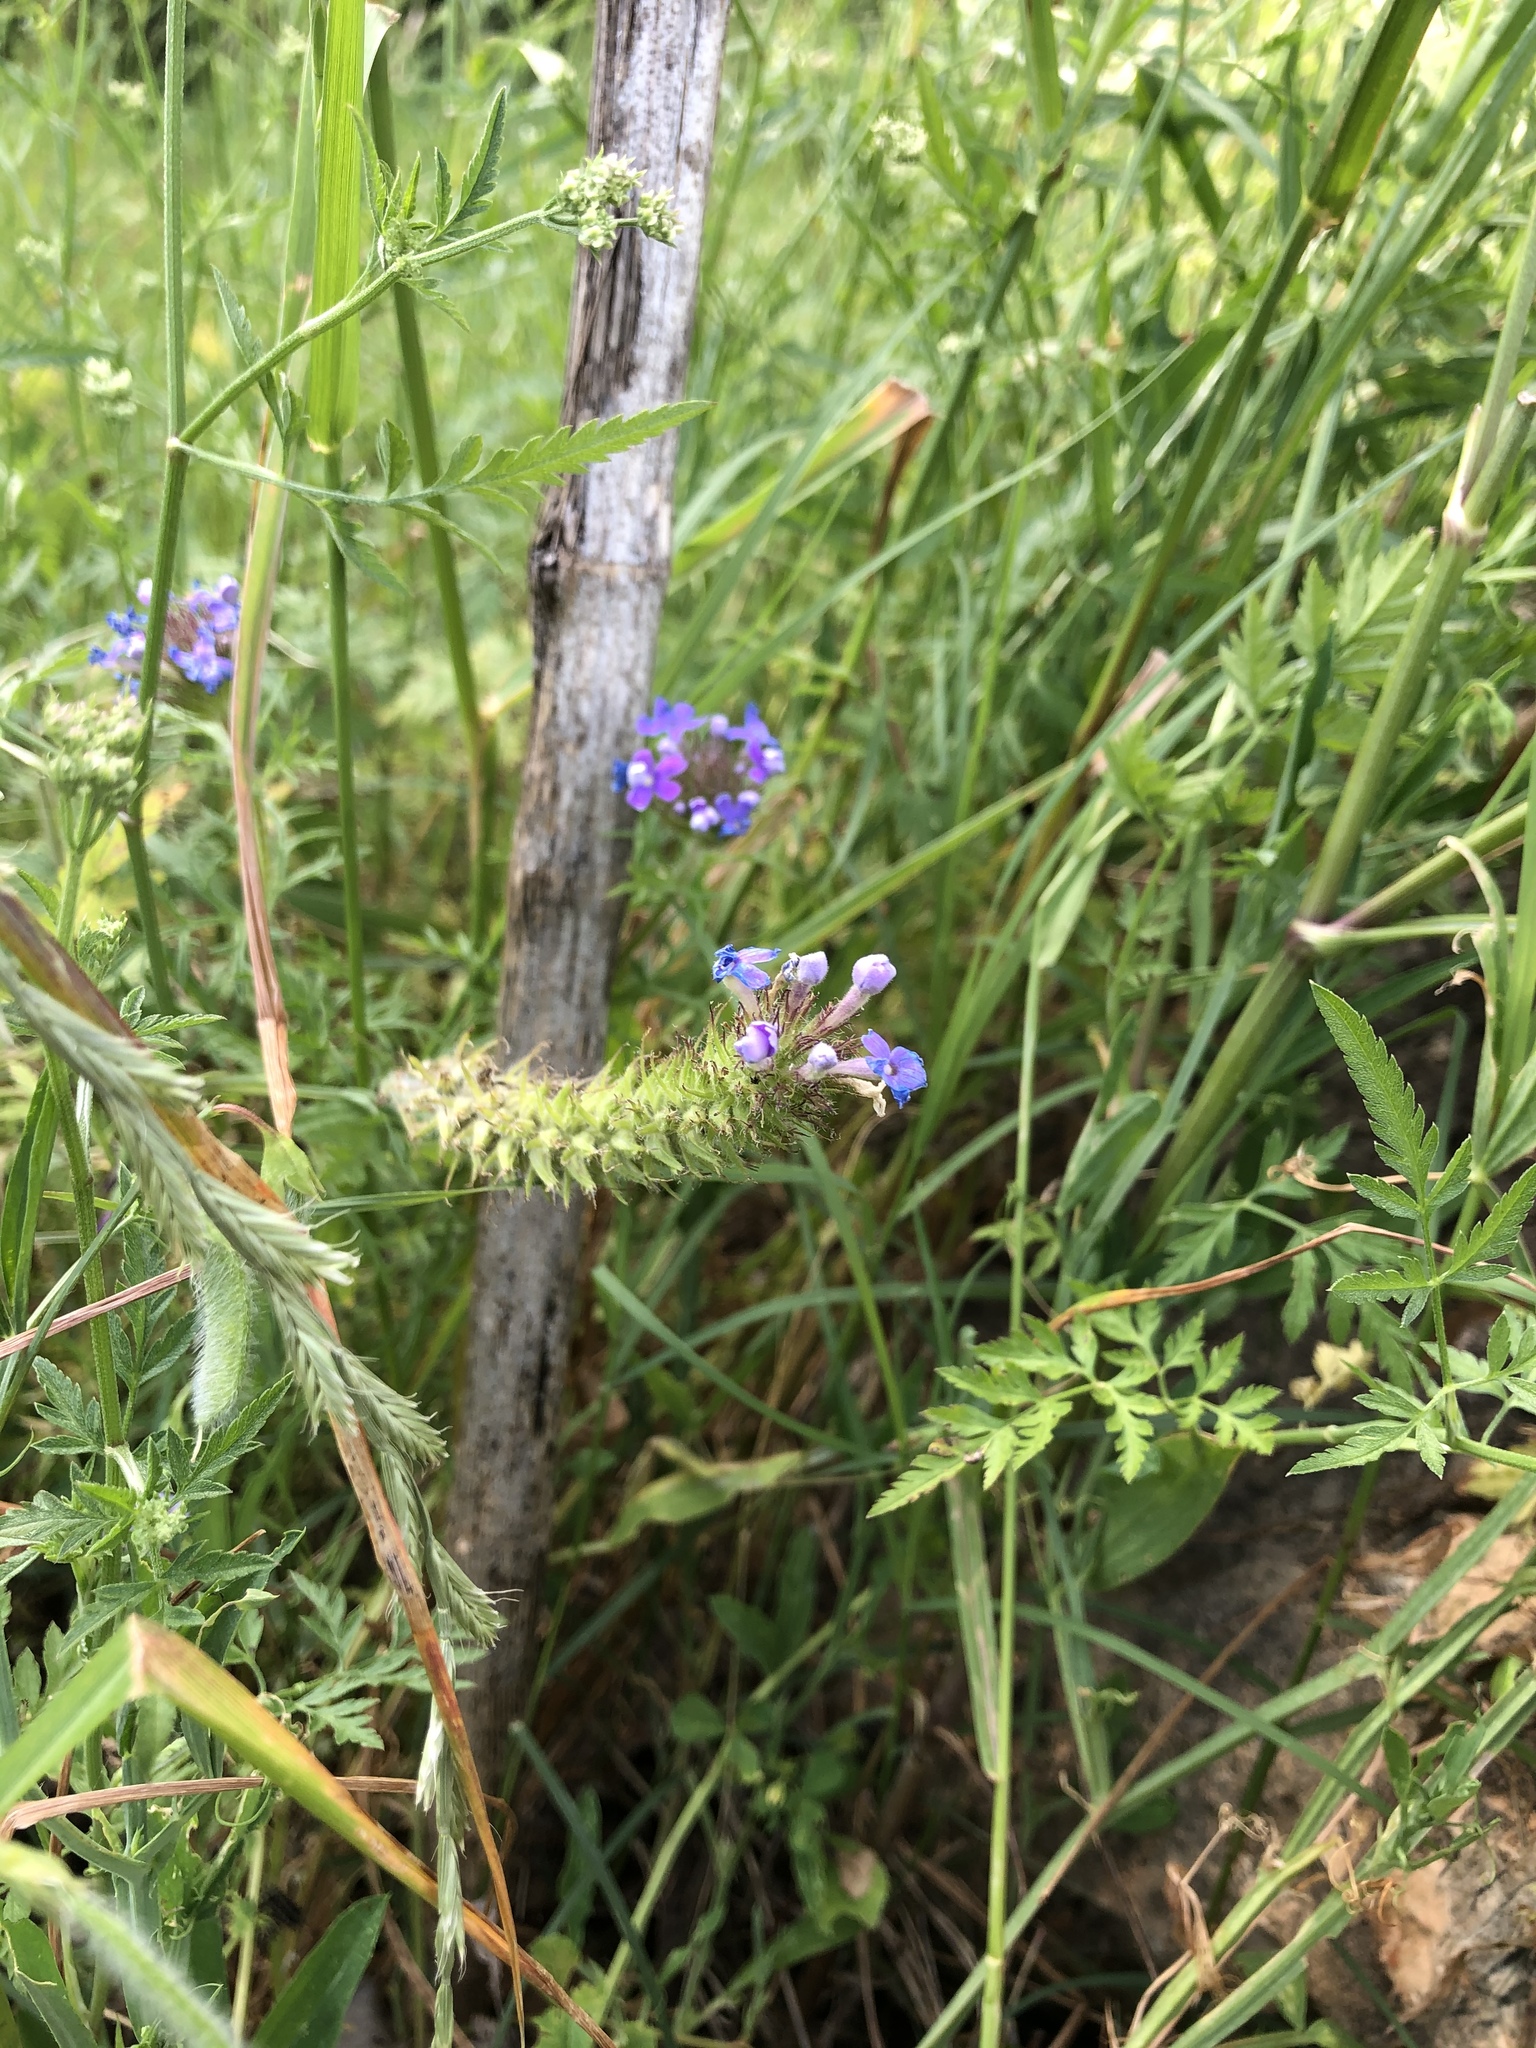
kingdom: Plantae
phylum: Tracheophyta
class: Magnoliopsida
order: Lamiales
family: Verbenaceae
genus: Verbena
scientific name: Verbena bipinnatifida
